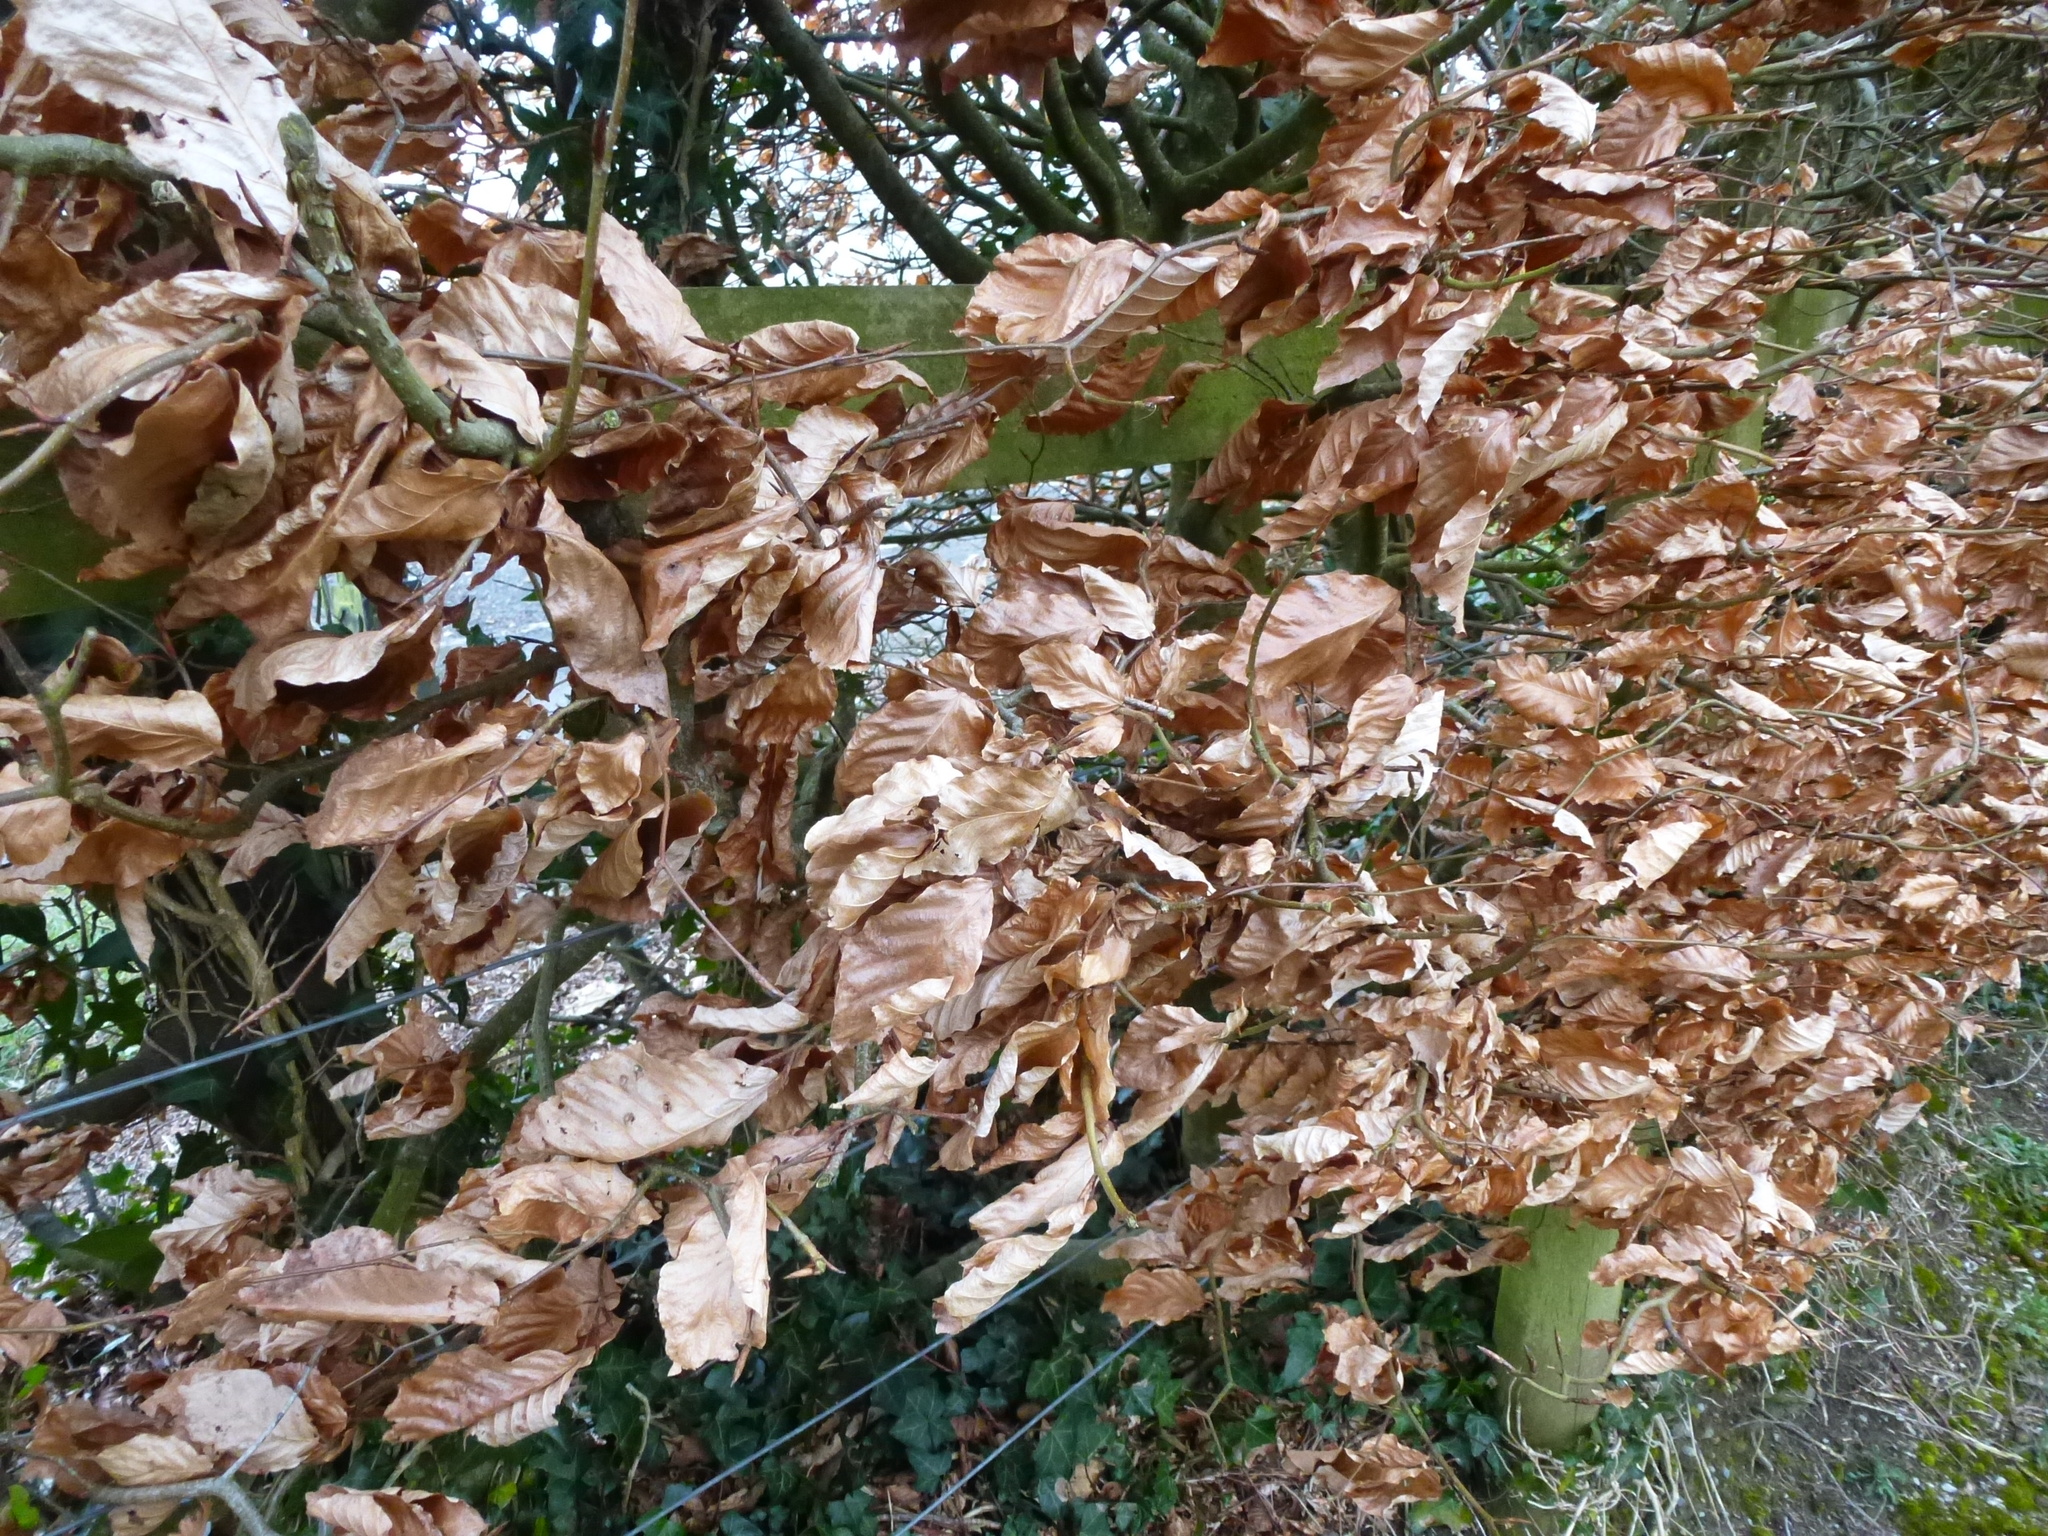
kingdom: Plantae
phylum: Tracheophyta
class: Magnoliopsida
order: Fagales
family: Fagaceae
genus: Fagus
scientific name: Fagus sylvatica
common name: Beech
